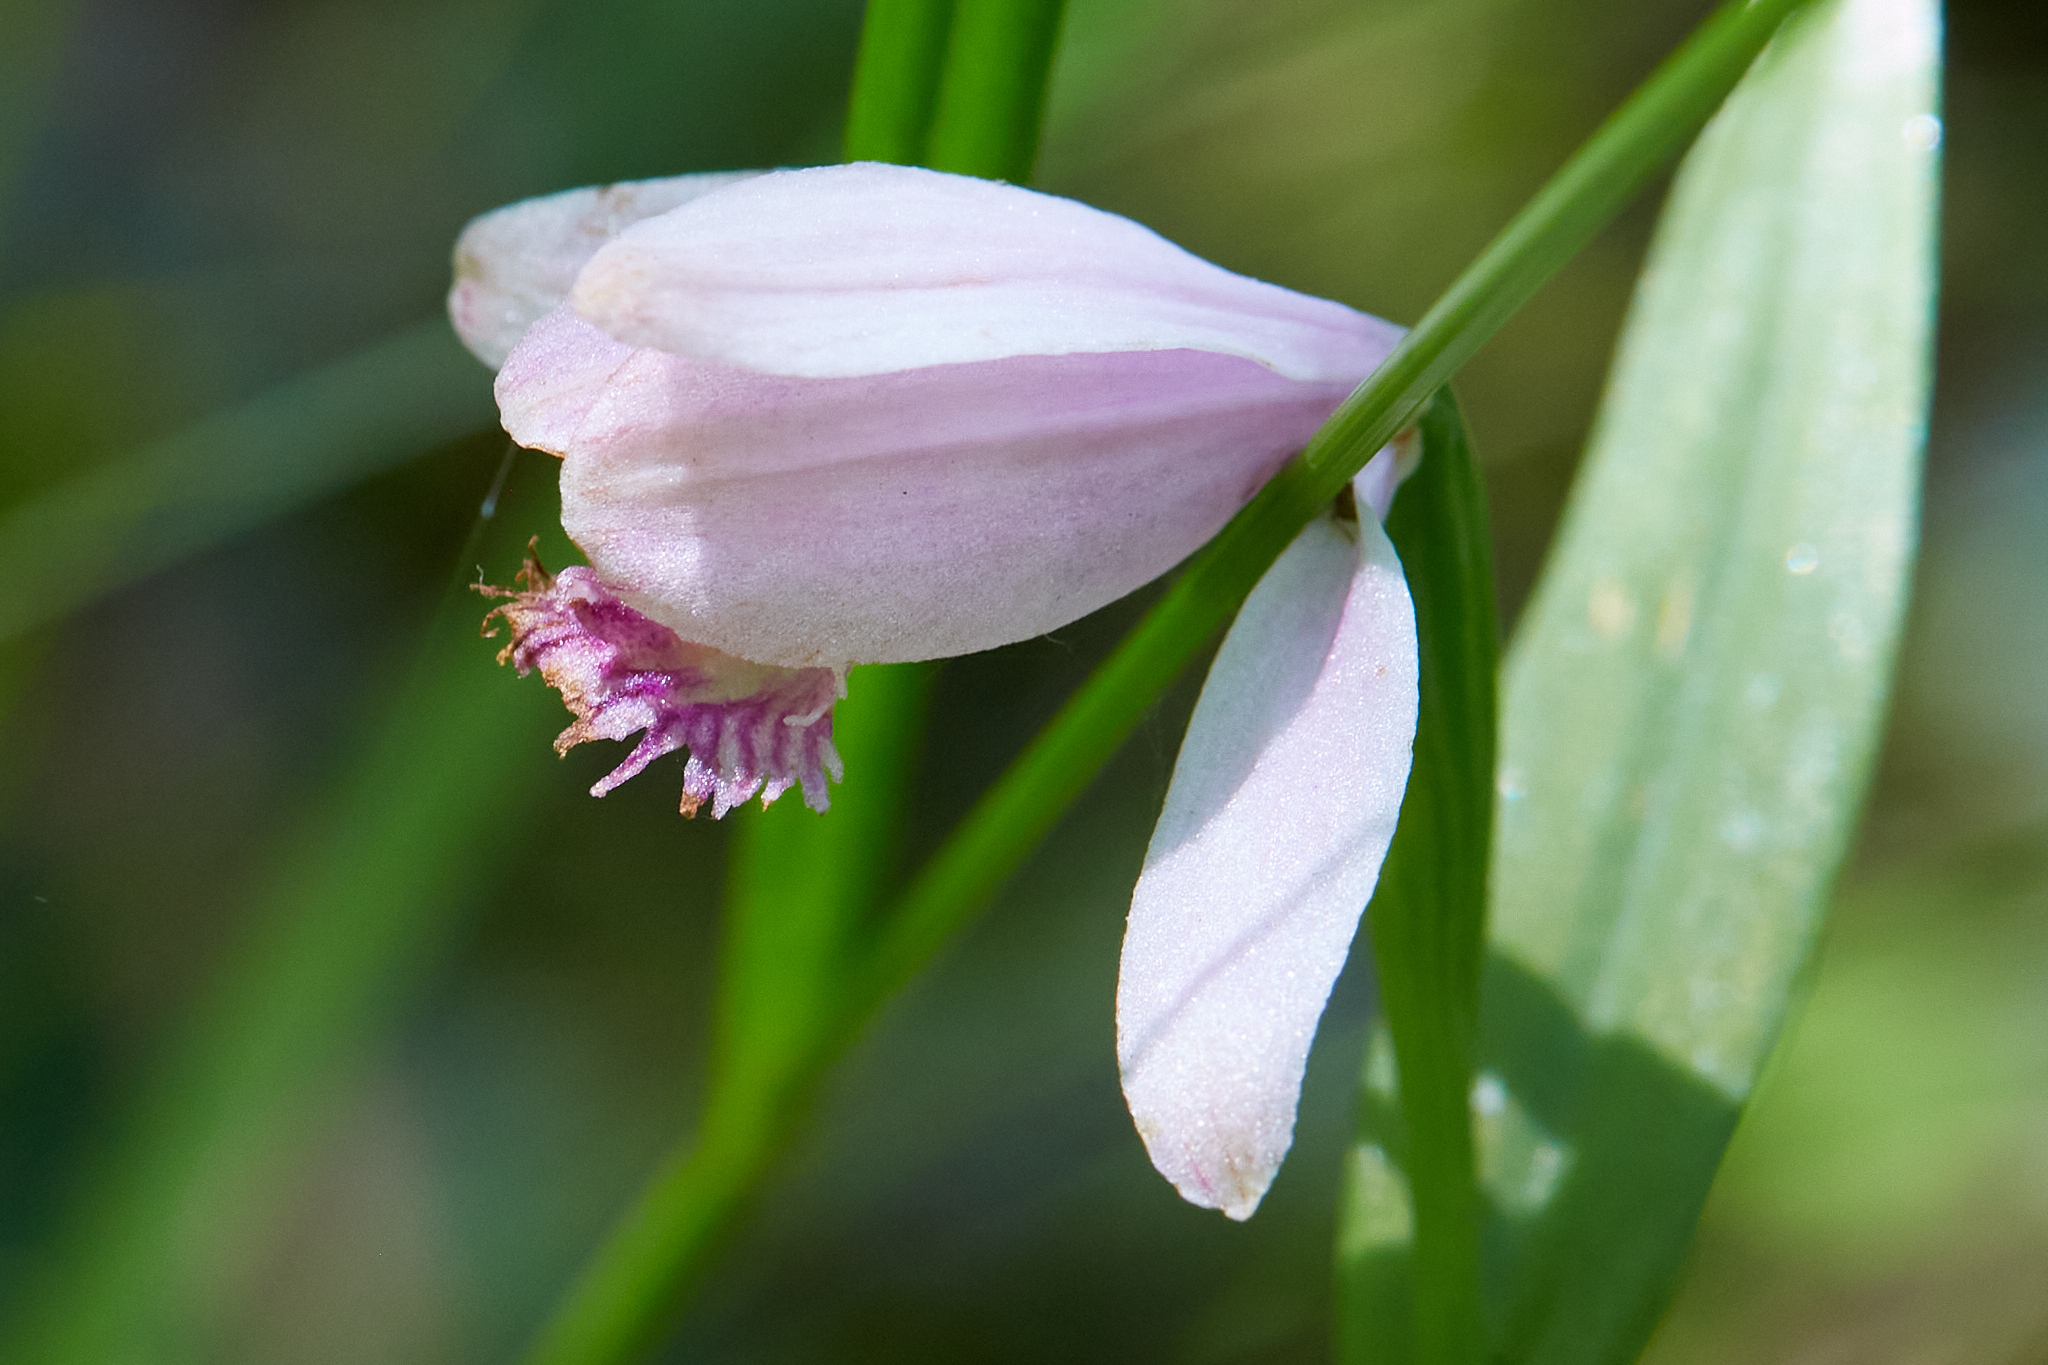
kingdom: Plantae
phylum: Tracheophyta
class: Liliopsida
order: Asparagales
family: Orchidaceae
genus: Pogonia
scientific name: Pogonia ophioglossoides
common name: Rose pogonia
